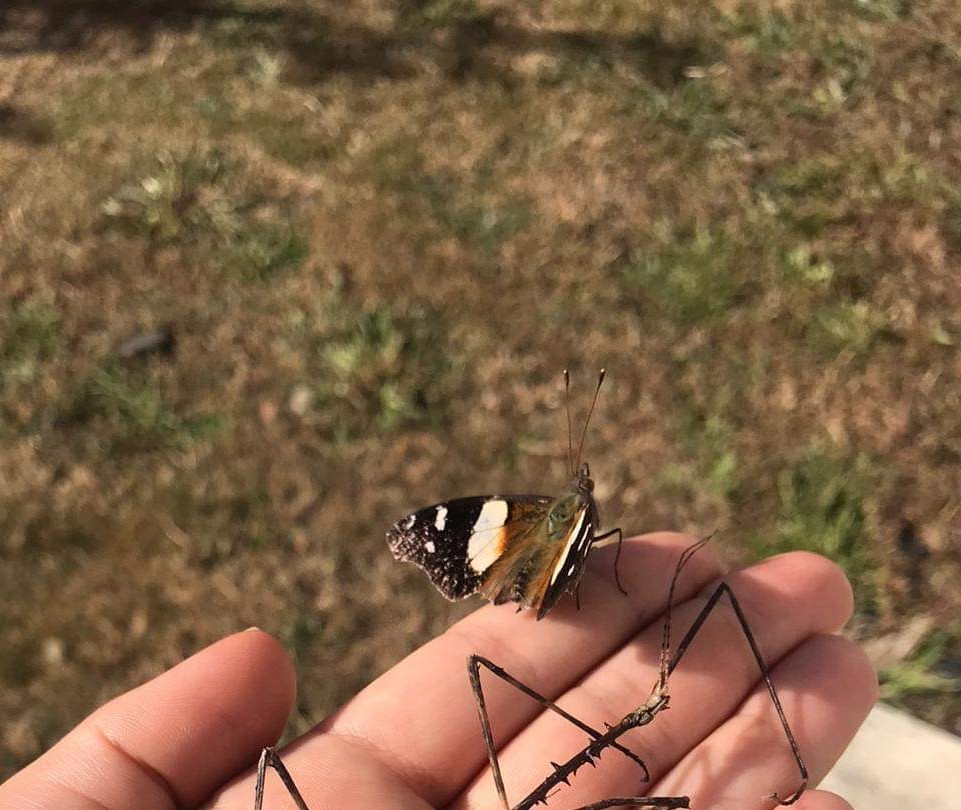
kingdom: Animalia
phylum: Arthropoda
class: Insecta
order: Lepidoptera
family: Nymphalidae
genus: Vanessa
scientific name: Vanessa itea
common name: Yellow admiral
